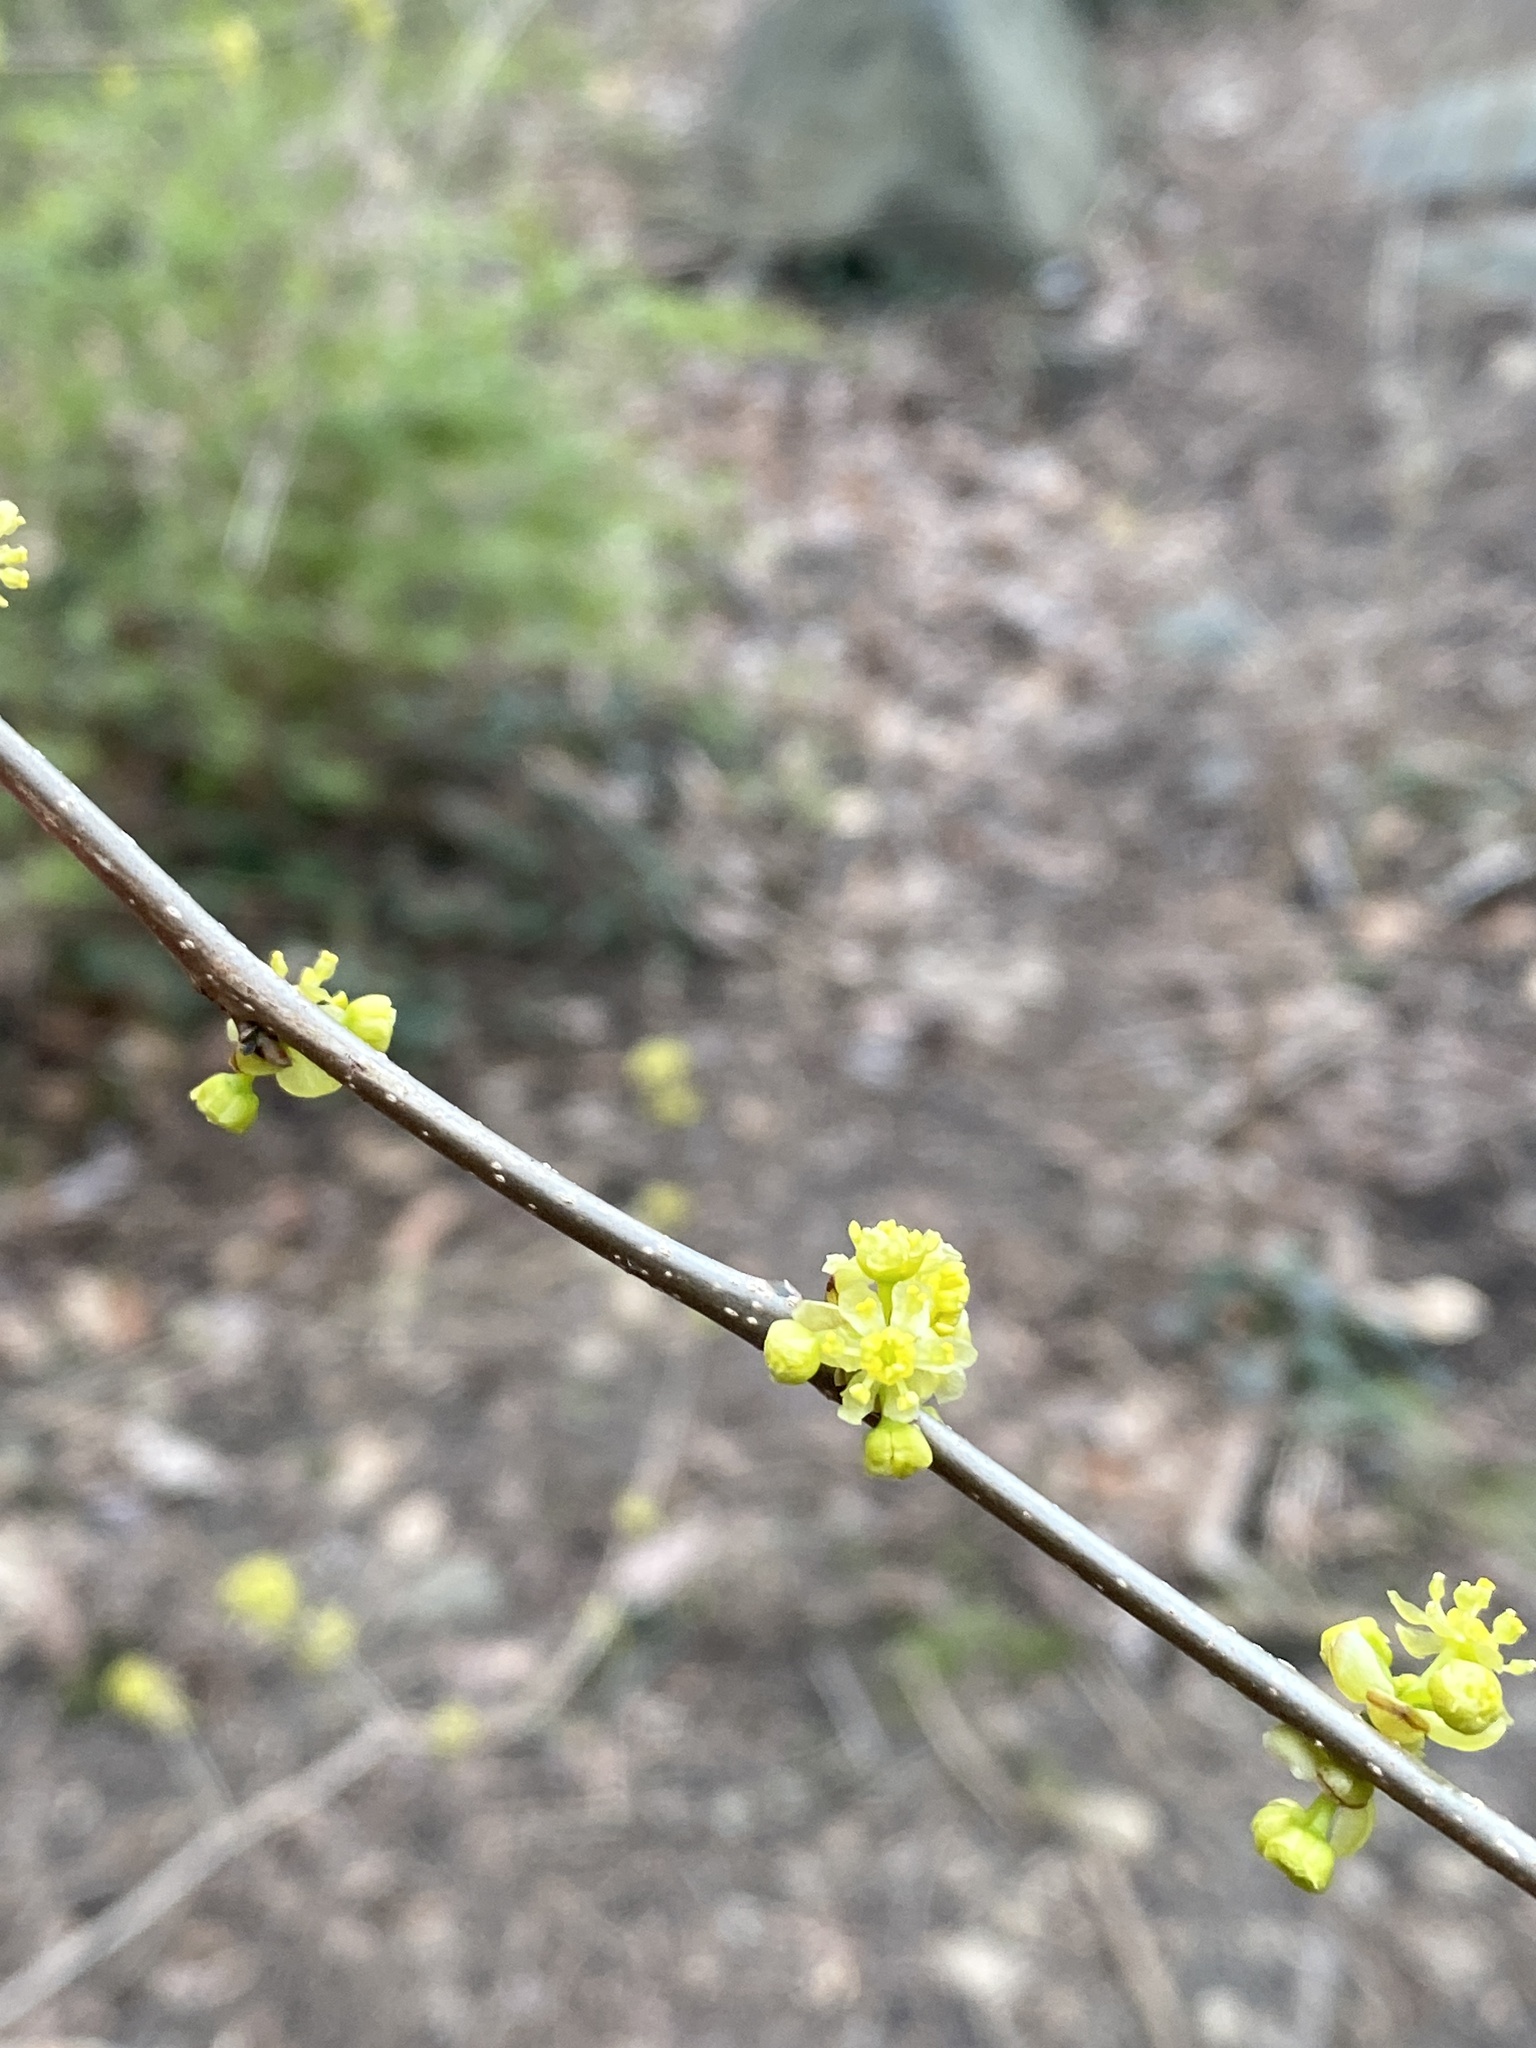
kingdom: Plantae
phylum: Tracheophyta
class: Magnoliopsida
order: Laurales
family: Lauraceae
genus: Lindera
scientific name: Lindera benzoin
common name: Spicebush
